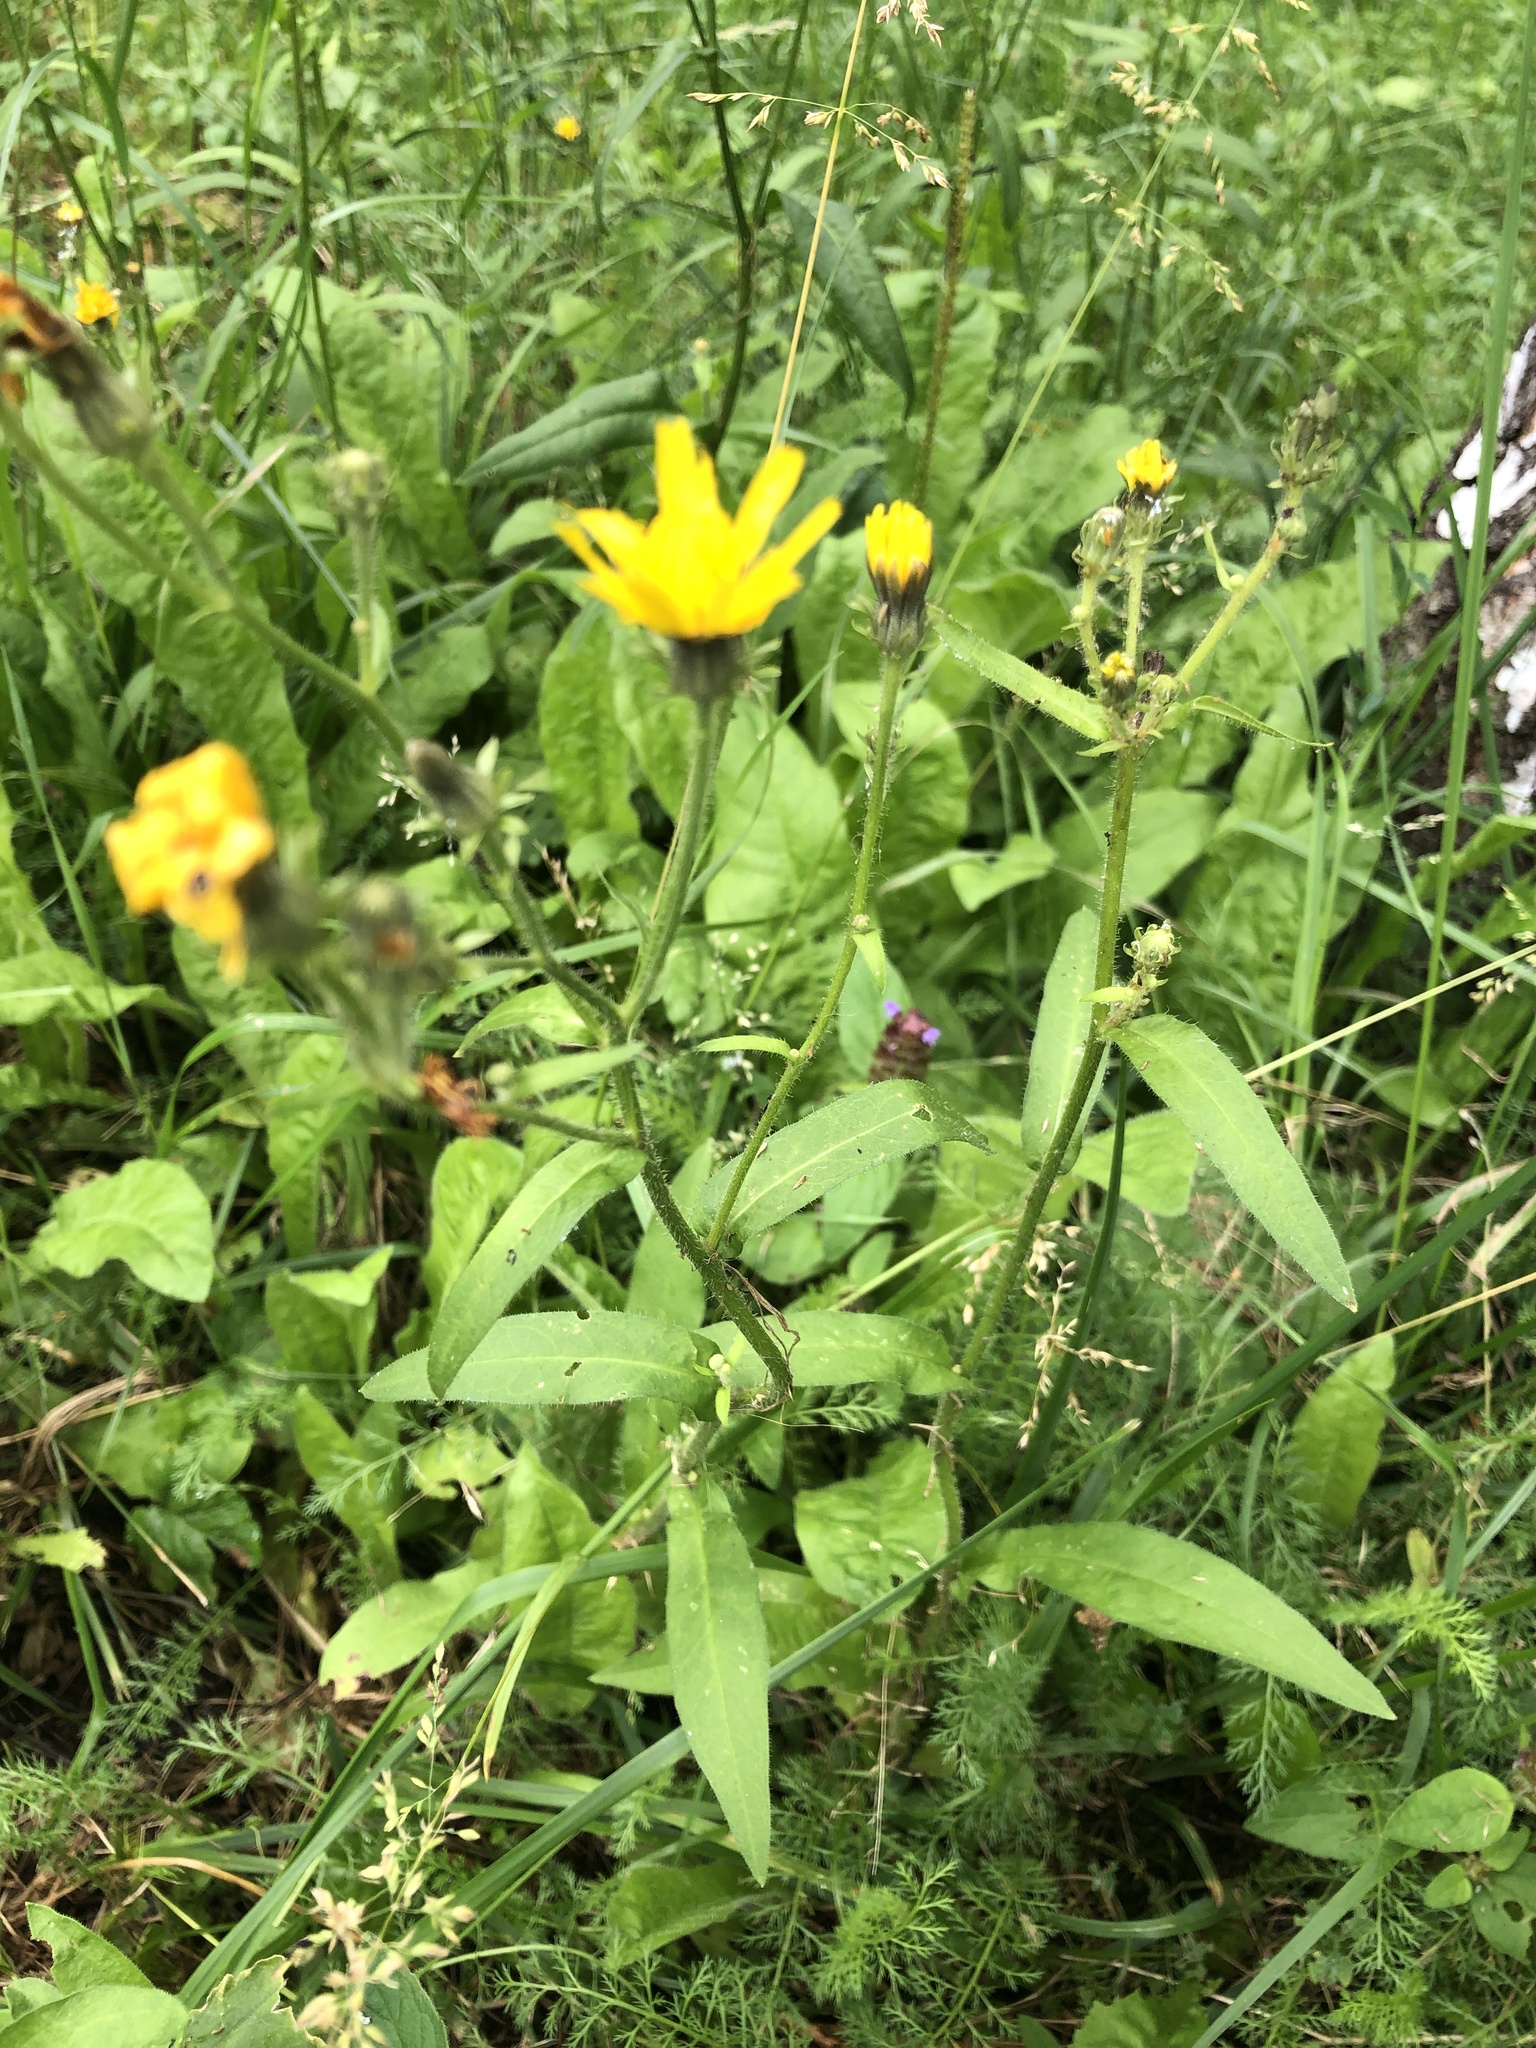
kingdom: Plantae
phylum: Tracheophyta
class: Magnoliopsida
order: Asterales
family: Asteraceae
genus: Picris
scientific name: Picris hieracioides
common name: Hawkweed oxtongue
